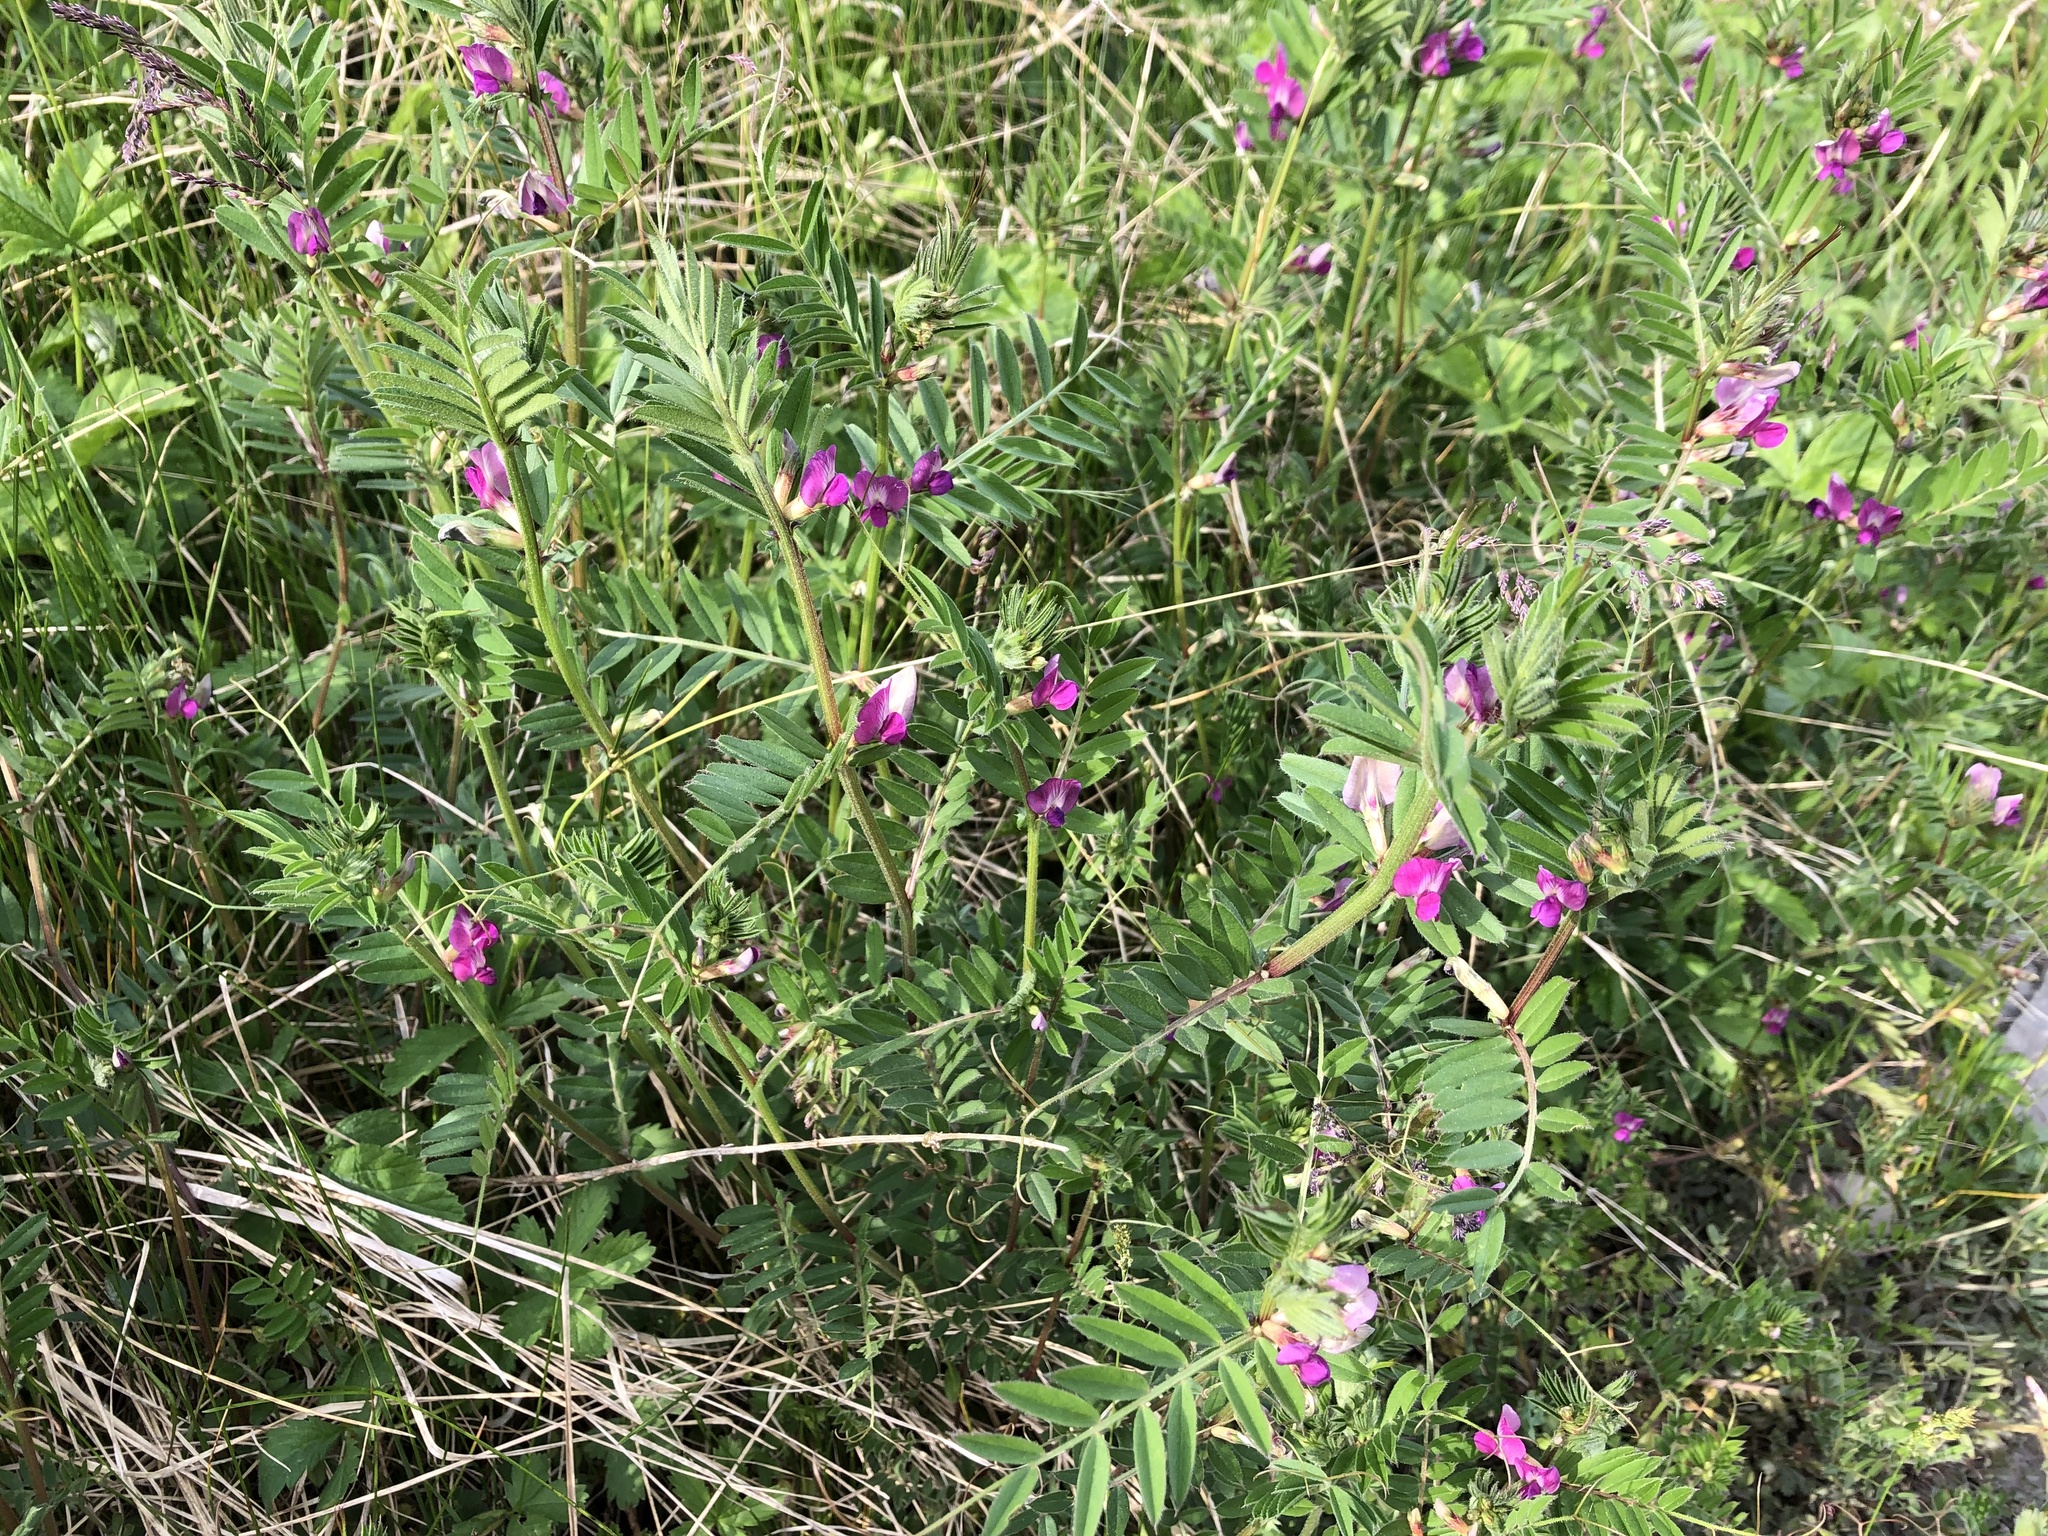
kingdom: Plantae
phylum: Tracheophyta
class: Magnoliopsida
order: Fabales
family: Fabaceae
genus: Vicia
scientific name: Vicia sativa
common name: Garden vetch
